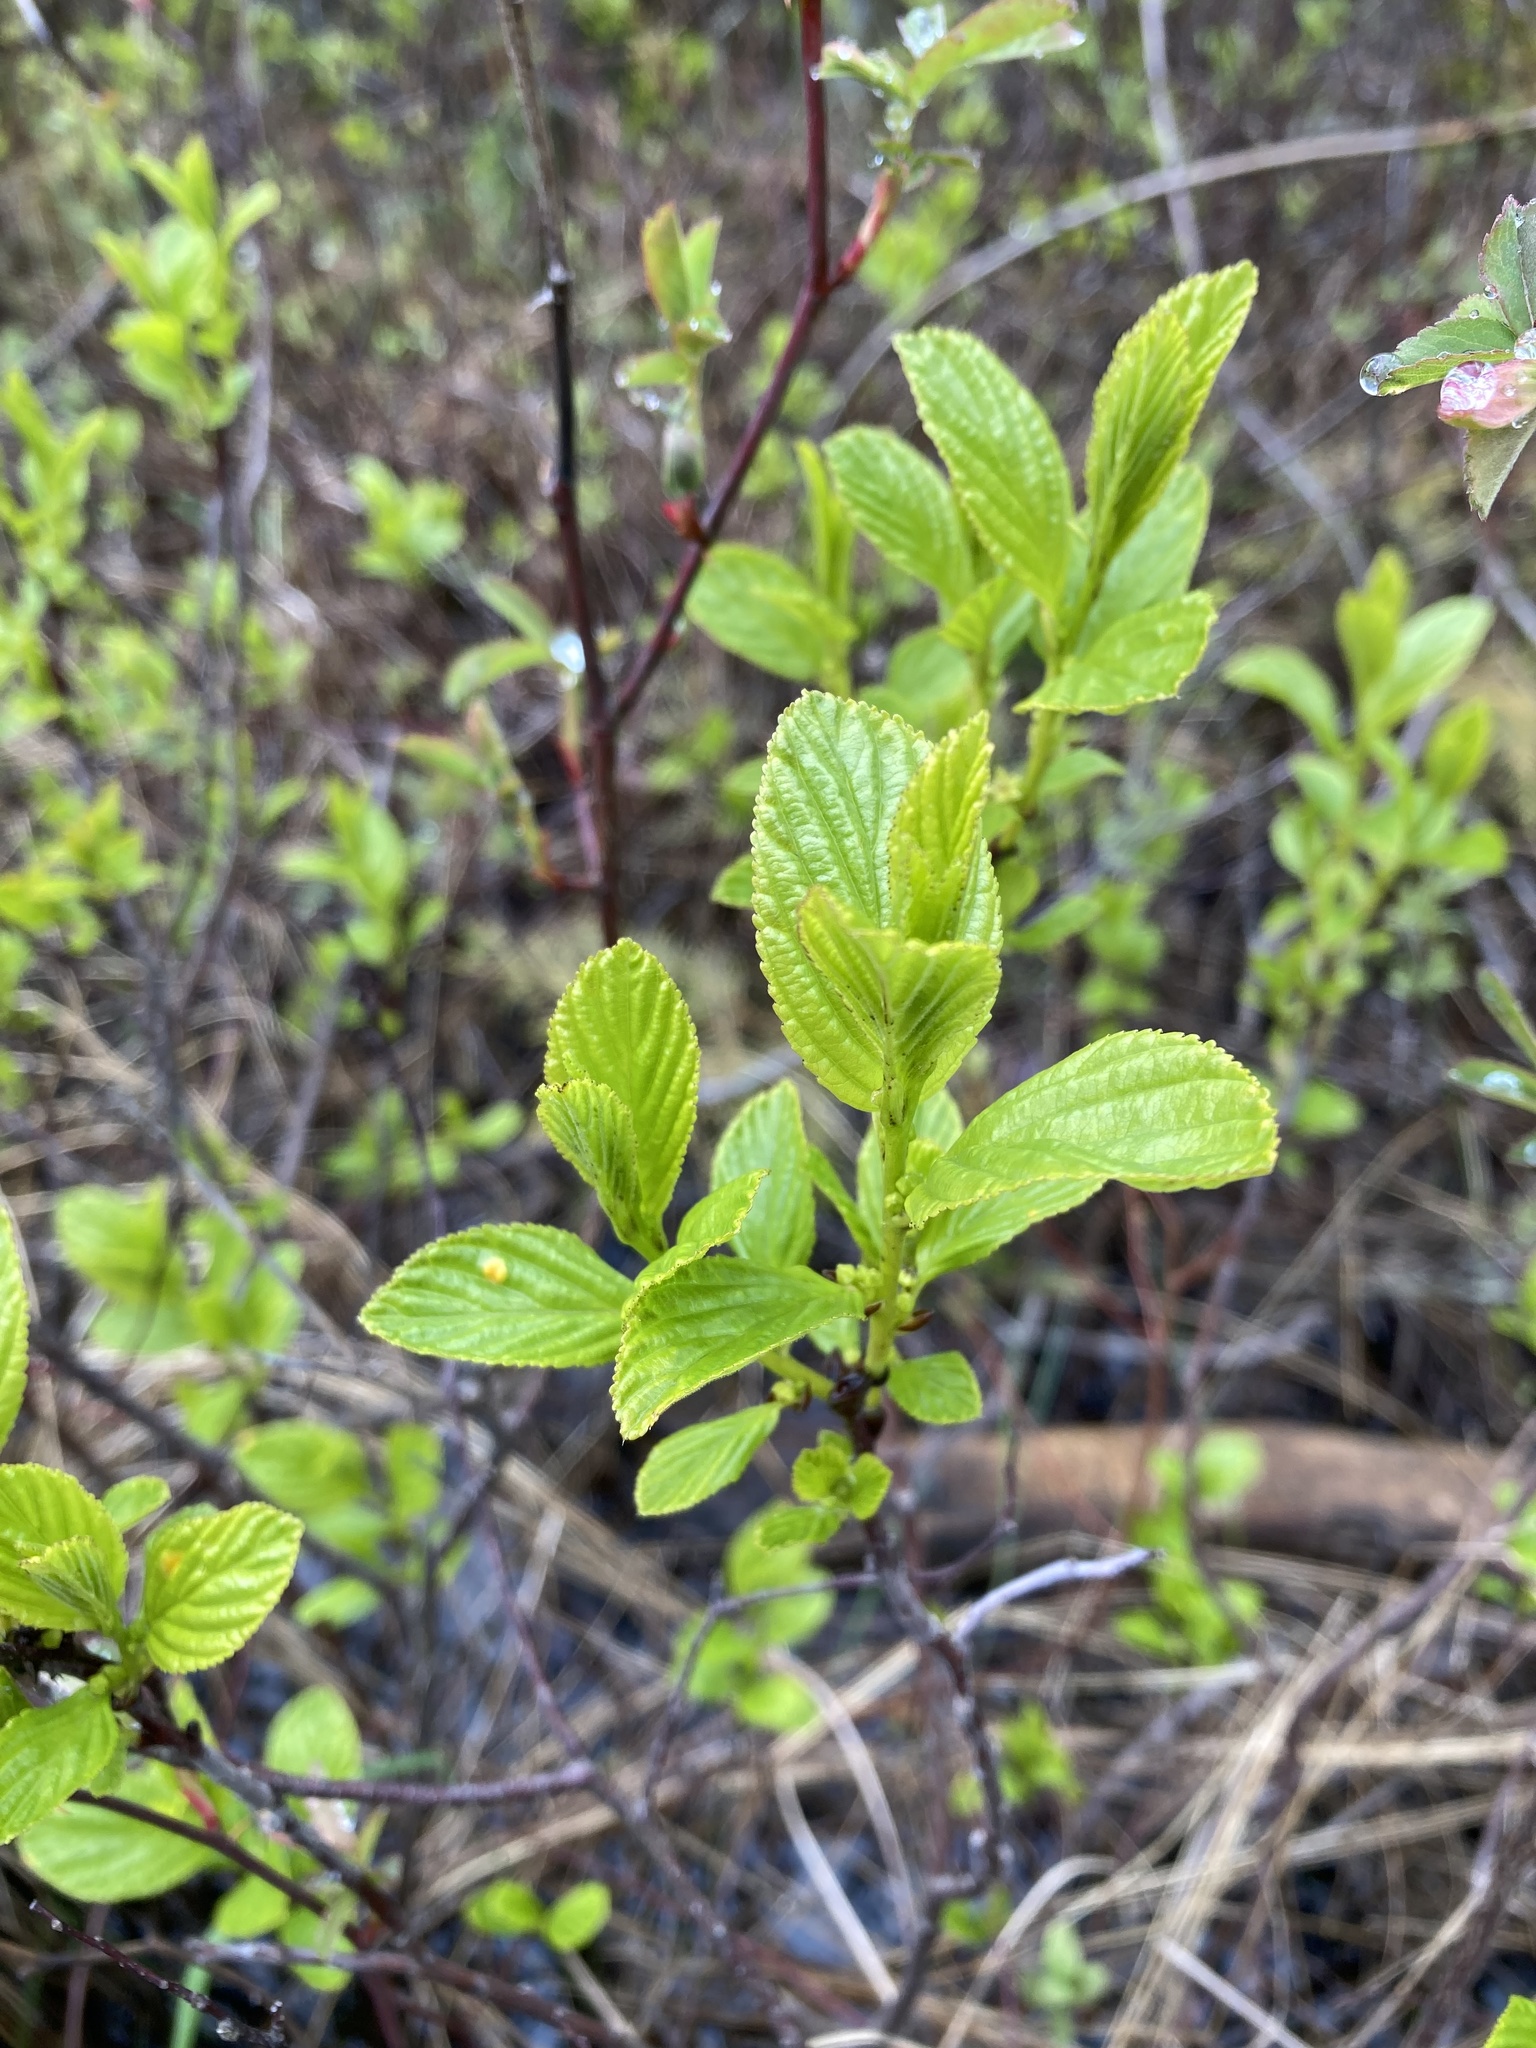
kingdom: Plantae
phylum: Tracheophyta
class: Magnoliopsida
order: Rosales
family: Rhamnaceae
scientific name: Rhamnaceae
